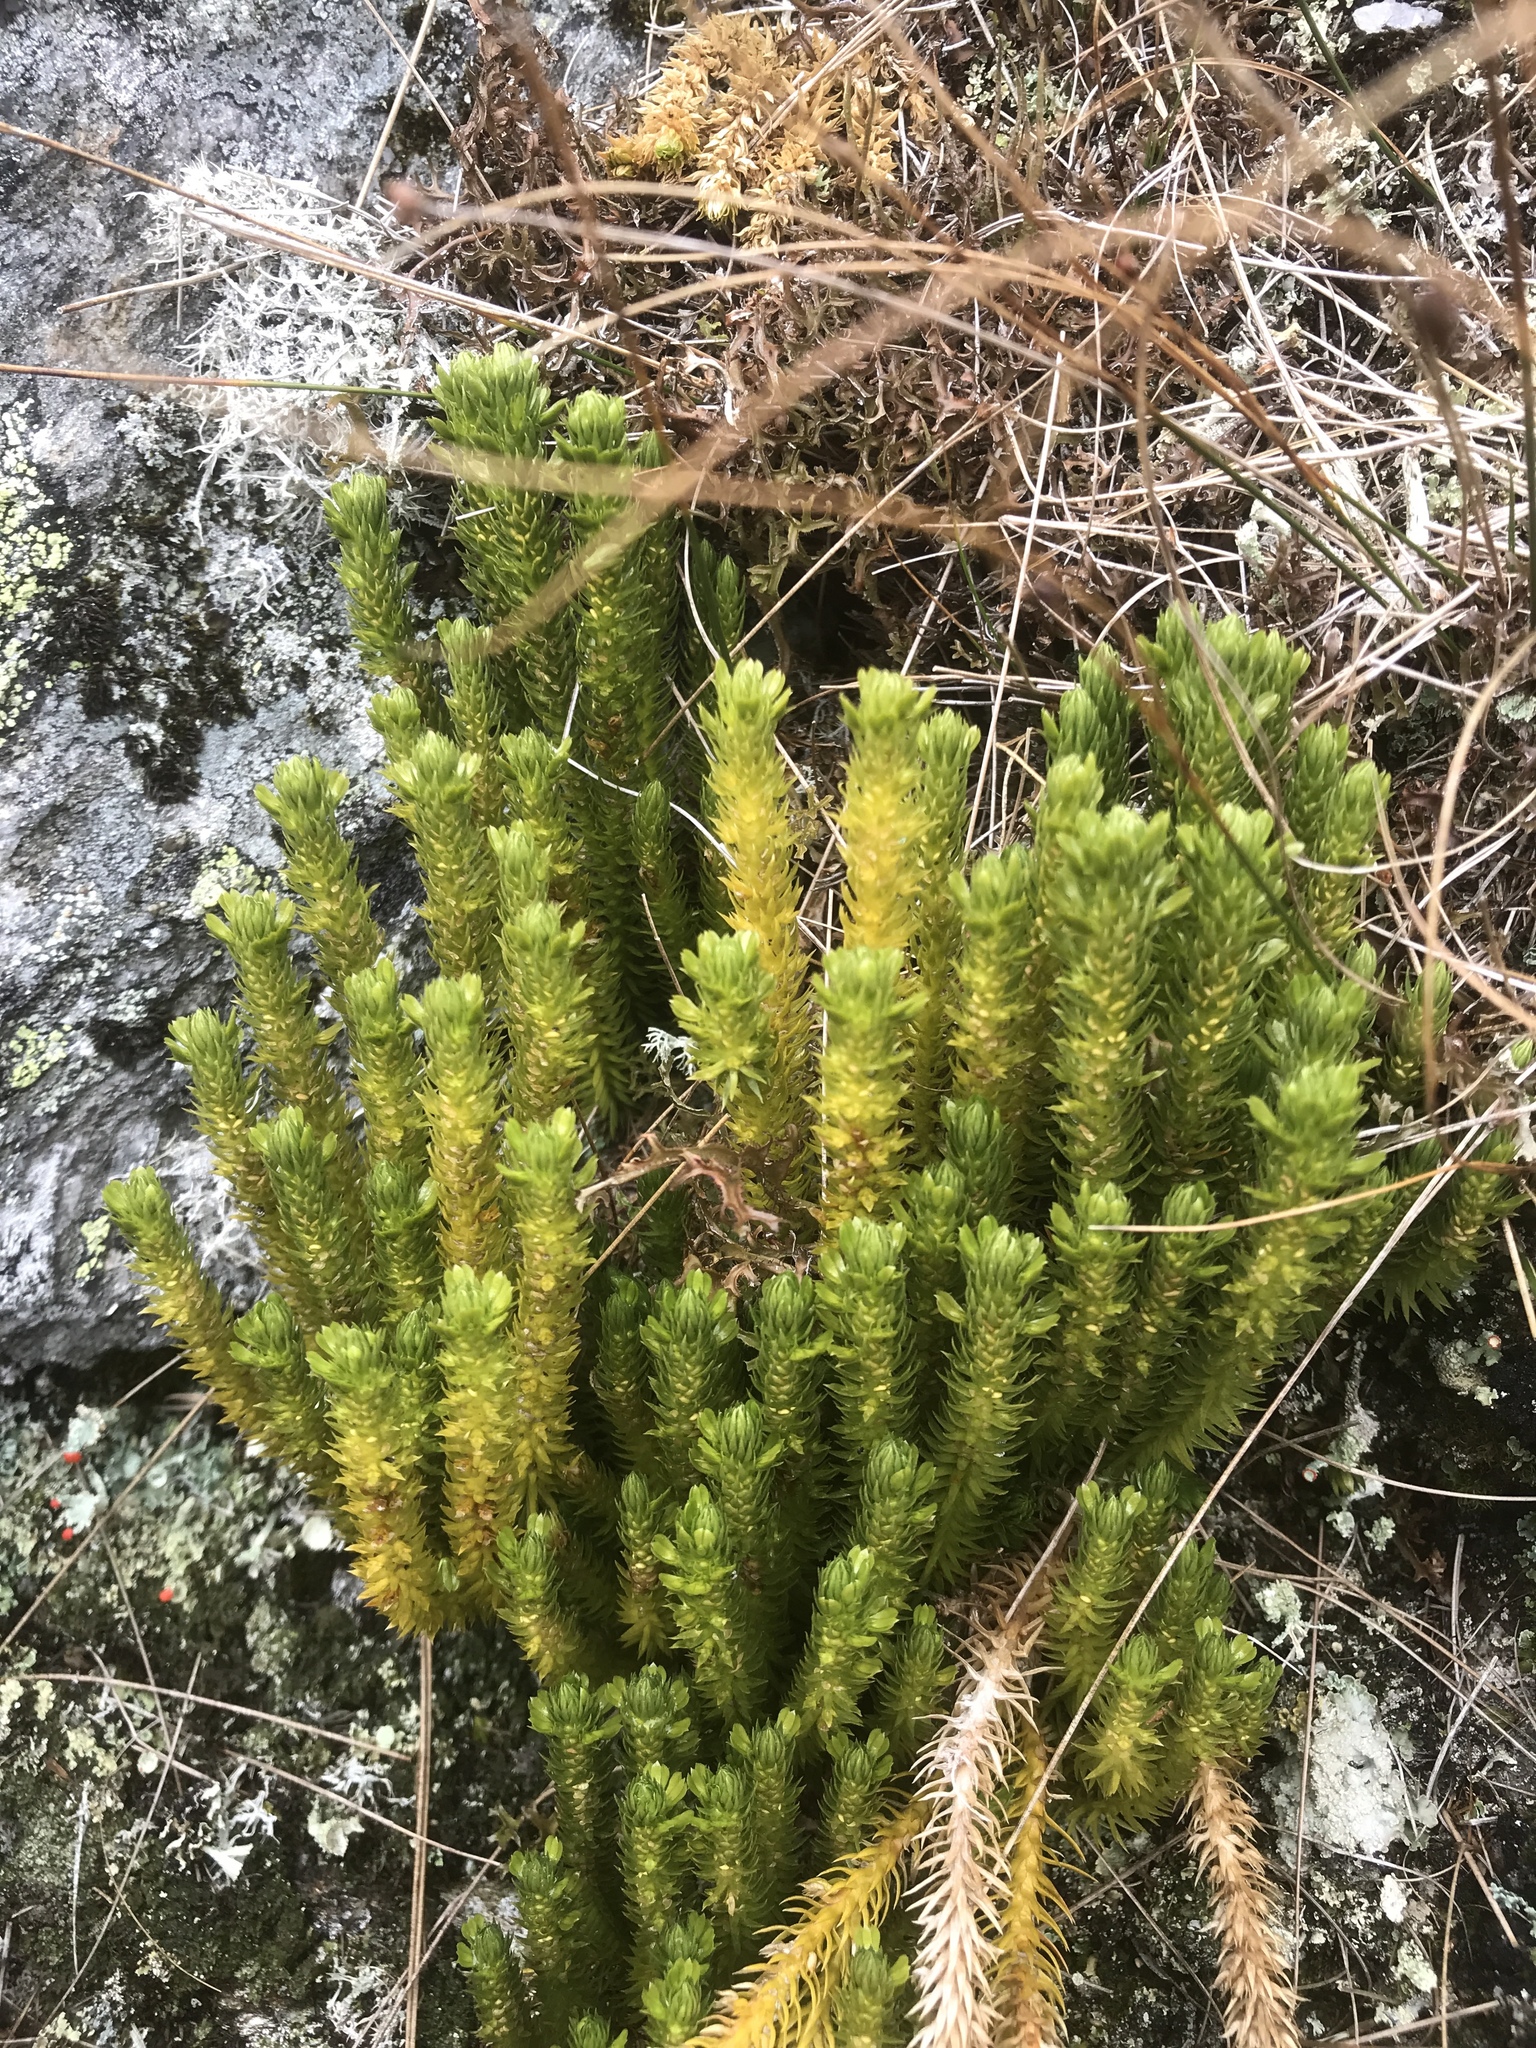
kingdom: Plantae
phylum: Tracheophyta
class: Lycopodiopsida
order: Lycopodiales
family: Lycopodiaceae
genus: Huperzia
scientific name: Huperzia selago
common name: Northern firmoss
